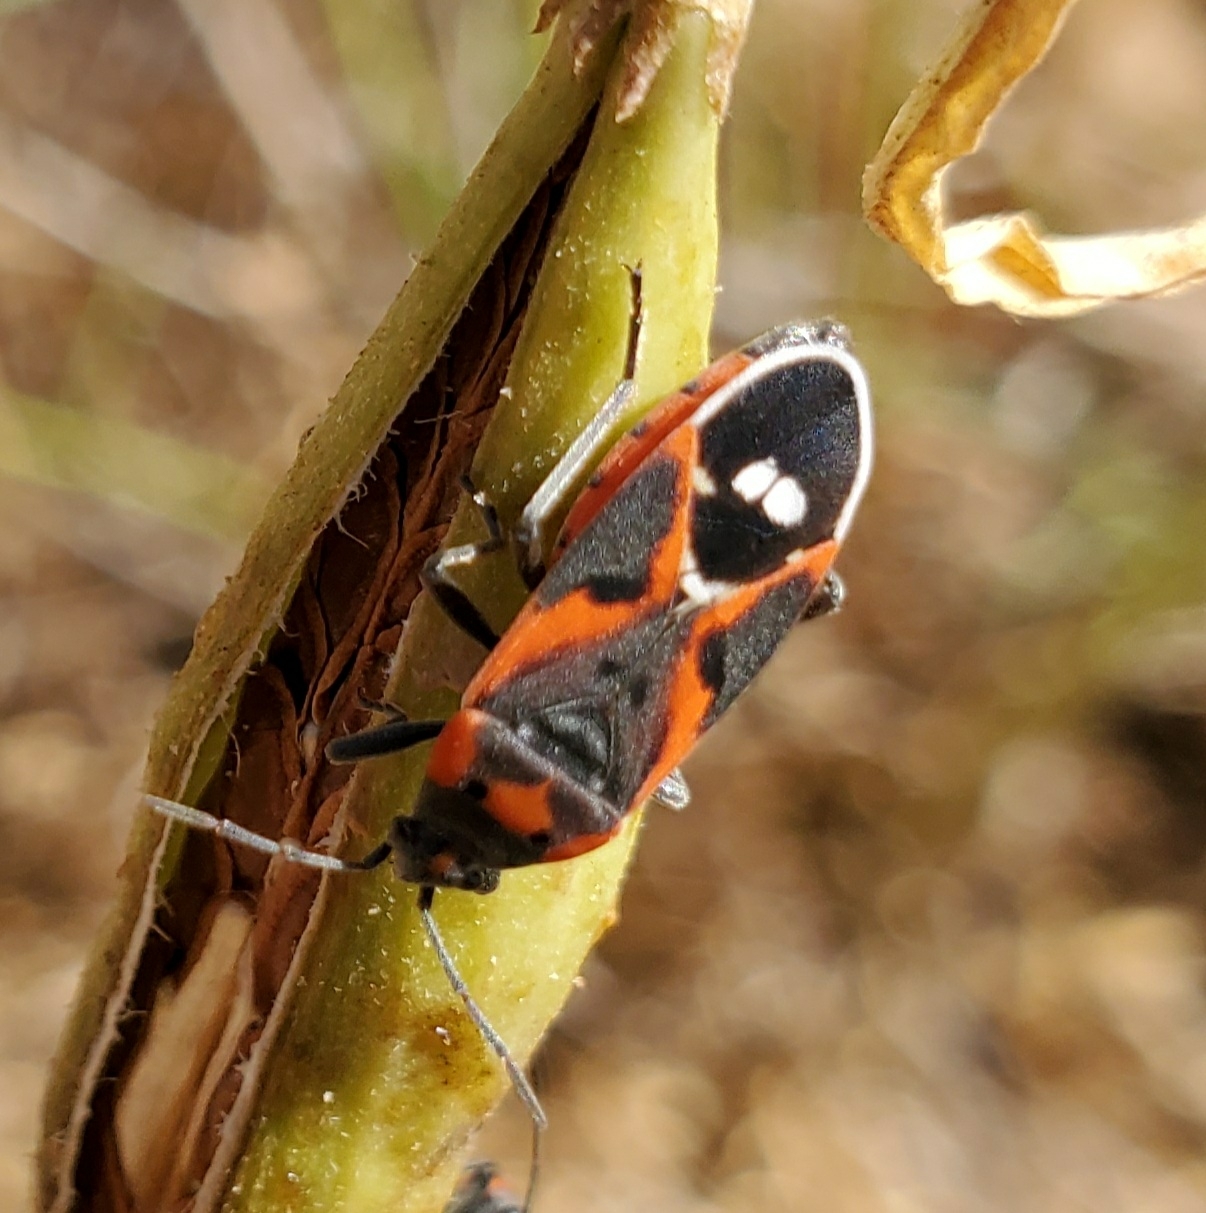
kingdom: Animalia
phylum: Arthropoda
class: Insecta
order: Hemiptera
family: Lygaeidae
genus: Lygaeus
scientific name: Lygaeus kalmii
